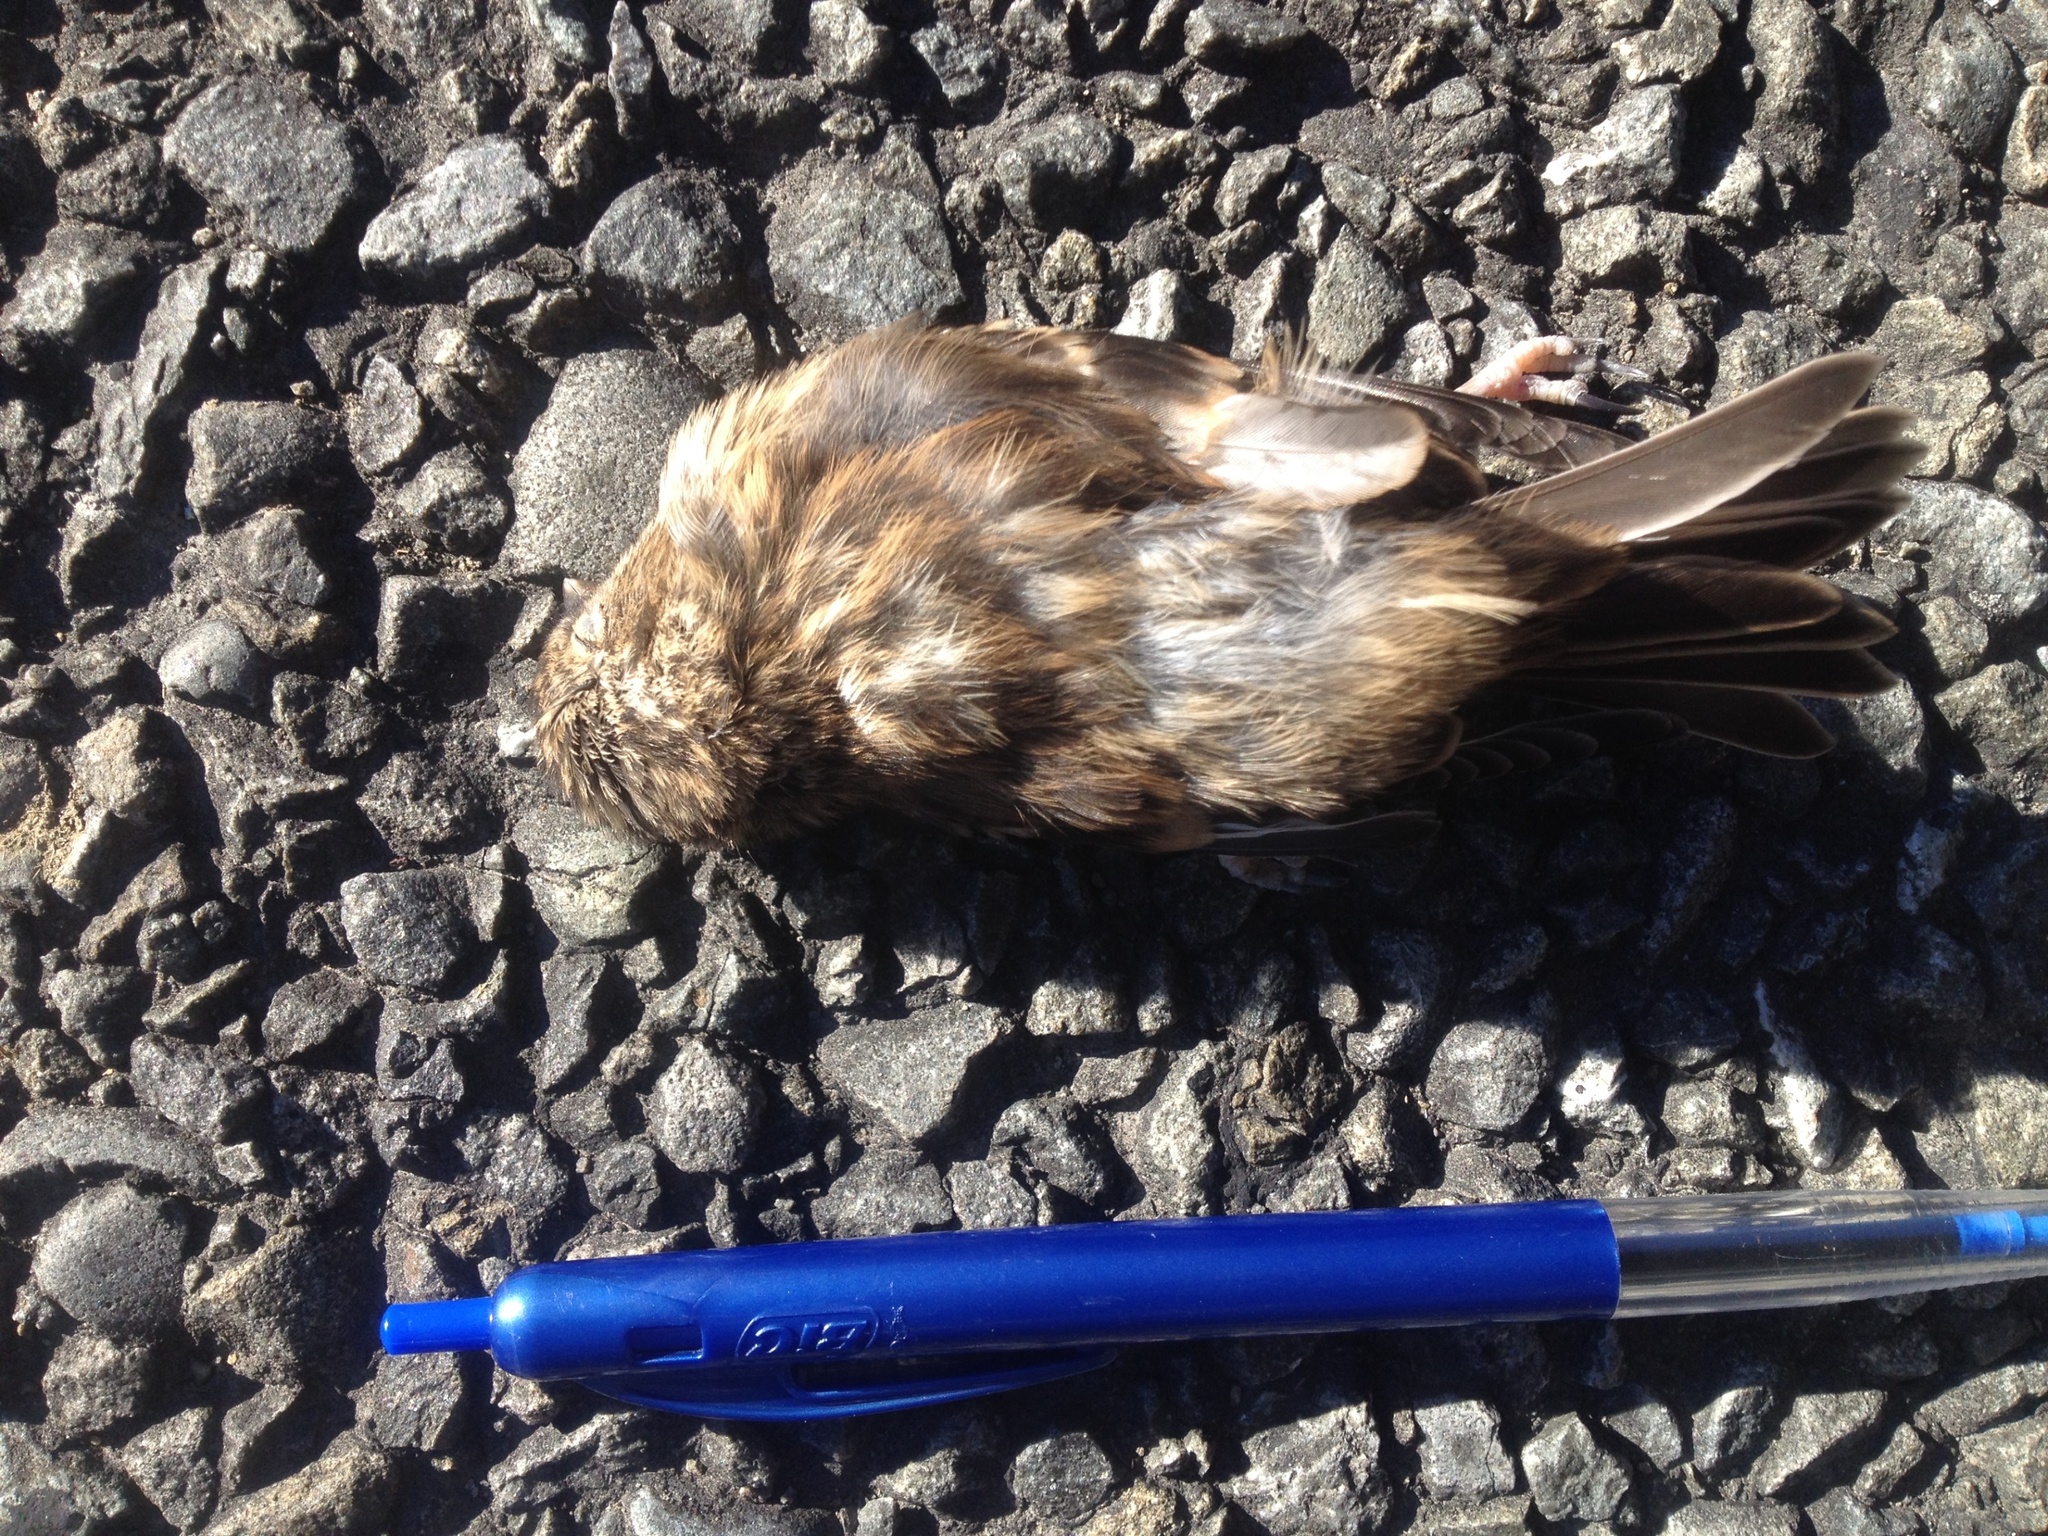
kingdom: Animalia
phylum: Chordata
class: Aves
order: Passeriformes
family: Fringillidae
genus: Acanthis
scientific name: Acanthis flammea
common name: Common redpoll
